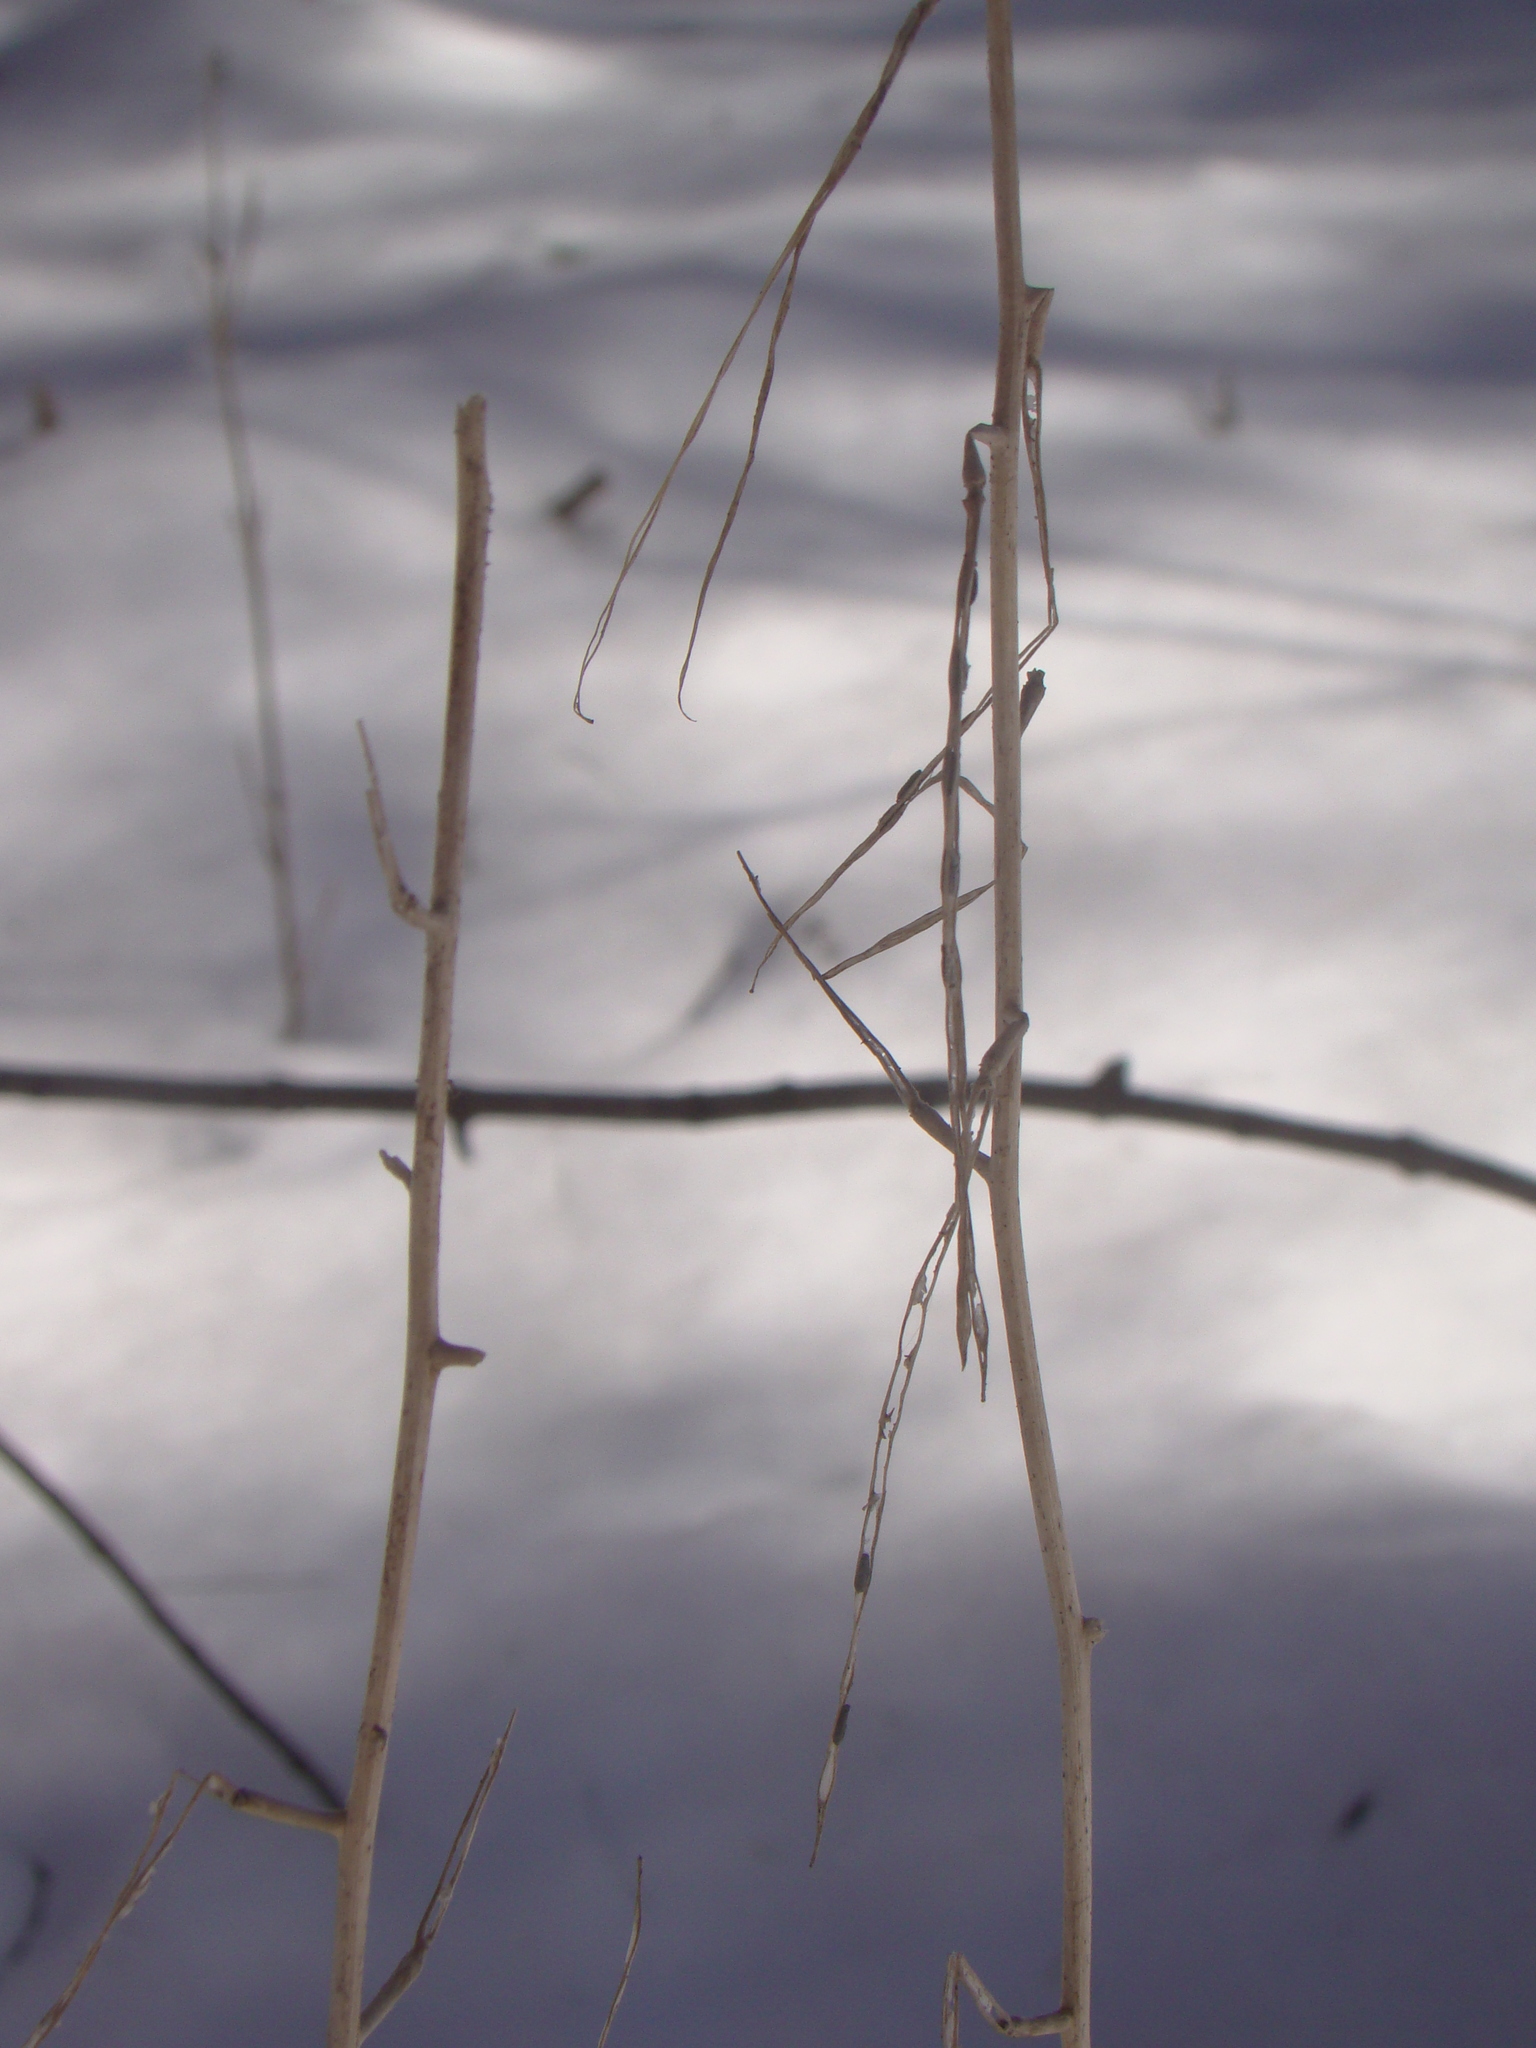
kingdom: Plantae
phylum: Tracheophyta
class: Magnoliopsida
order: Brassicales
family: Brassicaceae
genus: Alliaria
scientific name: Alliaria petiolata
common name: Garlic mustard
